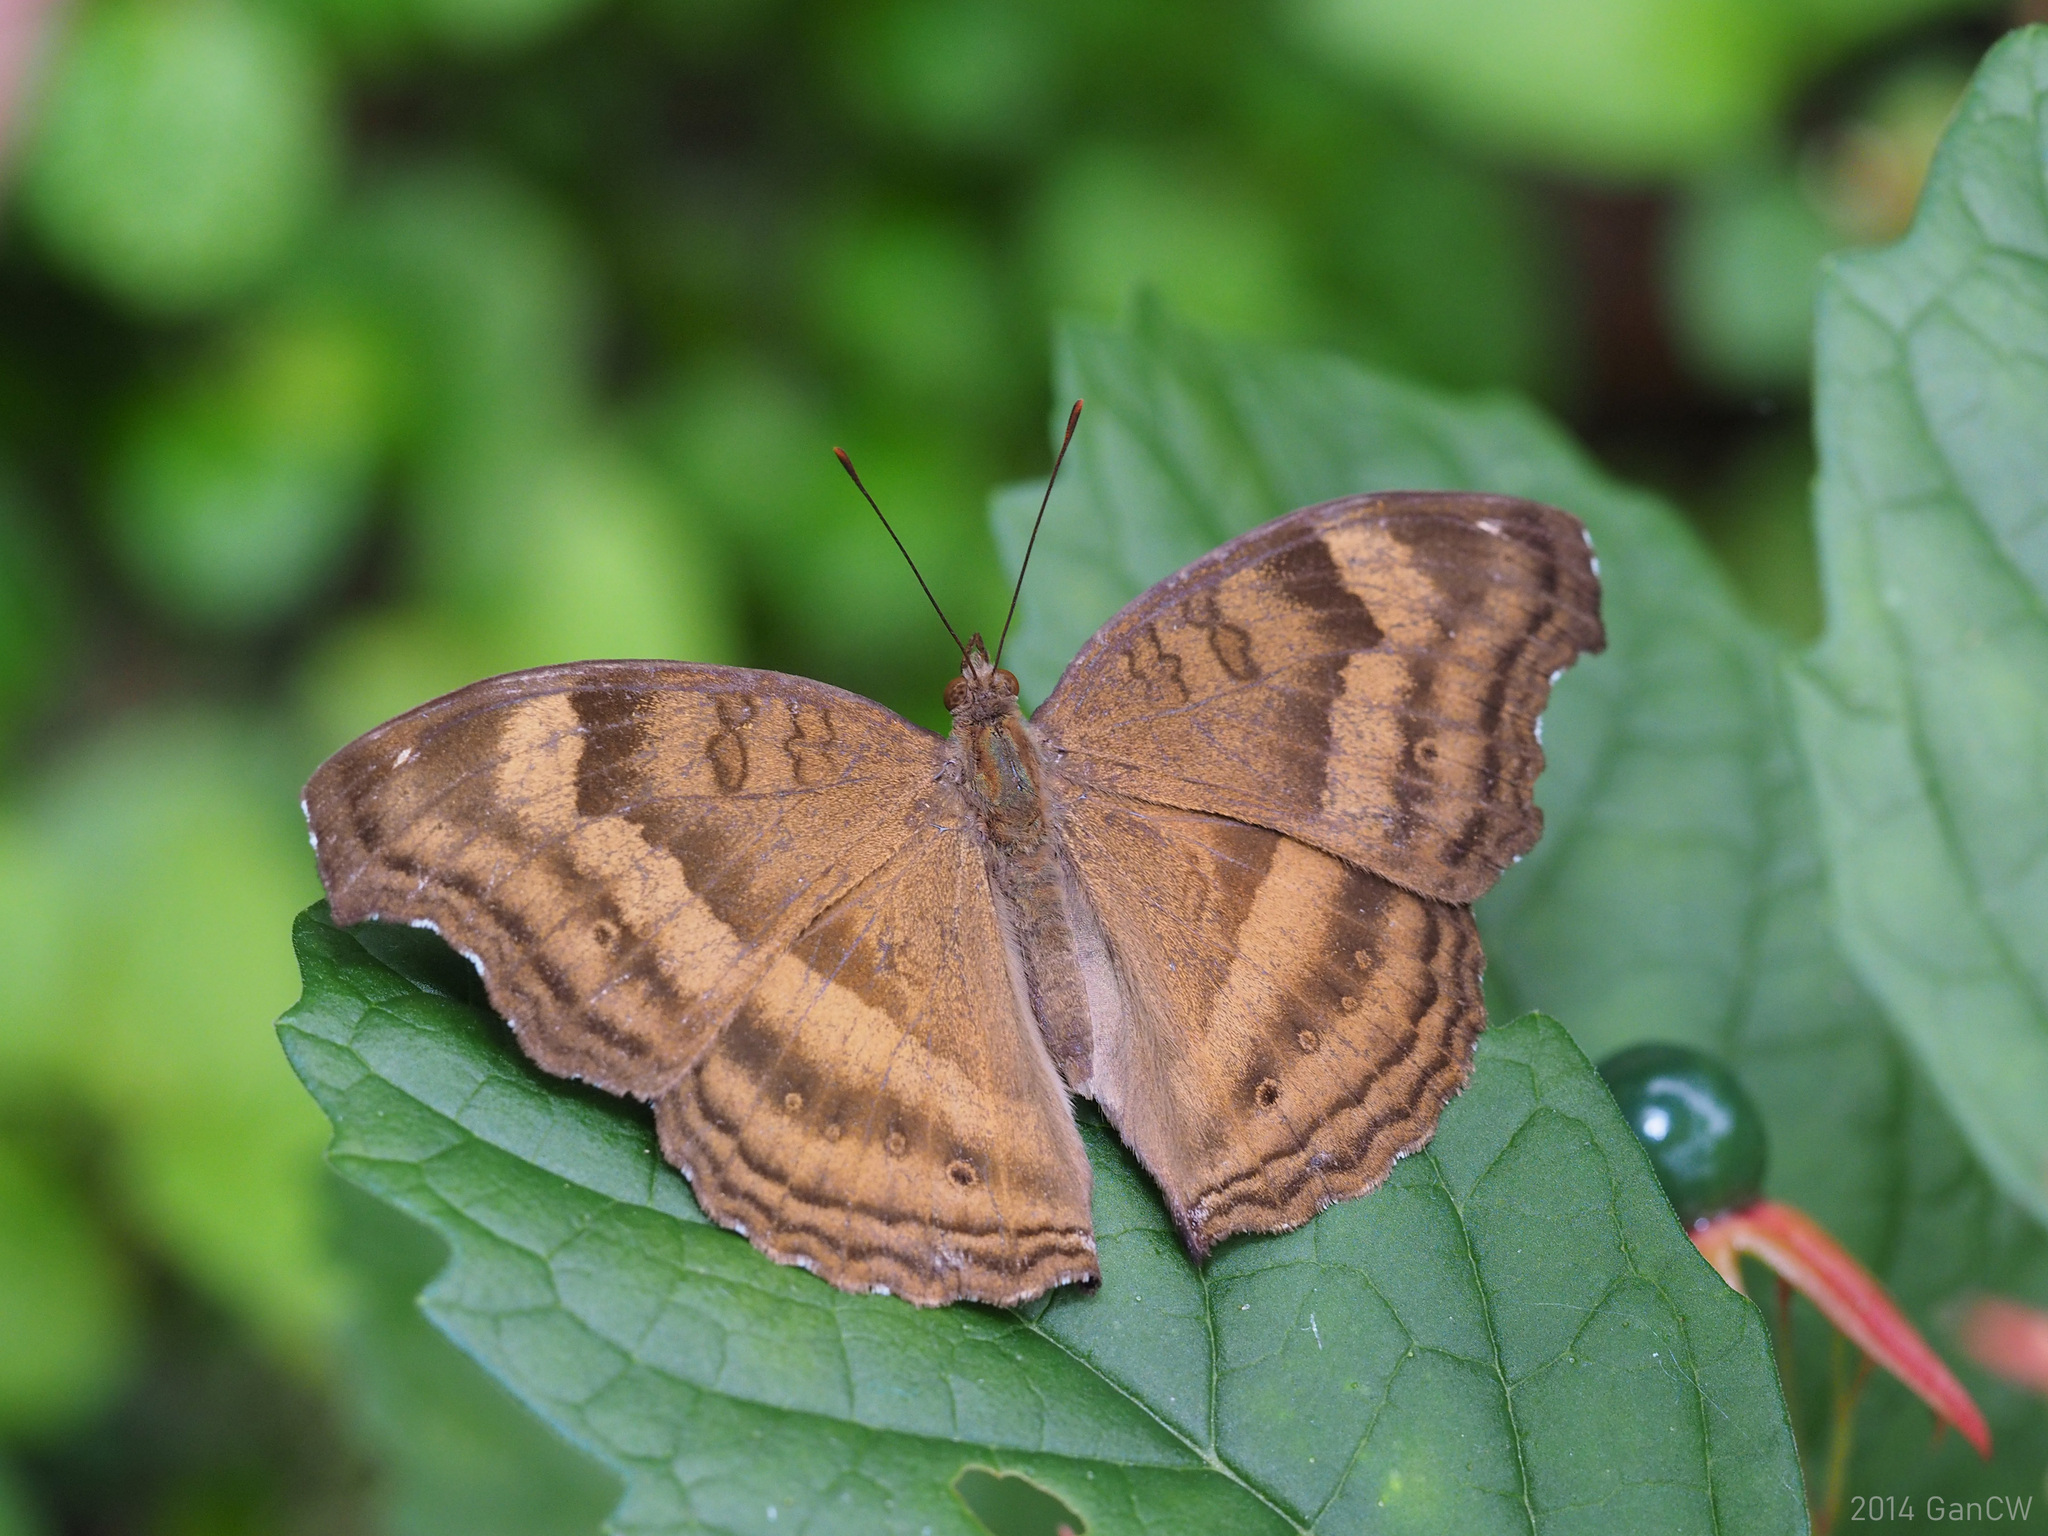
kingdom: Animalia
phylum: Arthropoda
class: Insecta
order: Lepidoptera
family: Nymphalidae
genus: Junonia
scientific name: Junonia iphita
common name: Chocolate pansy
